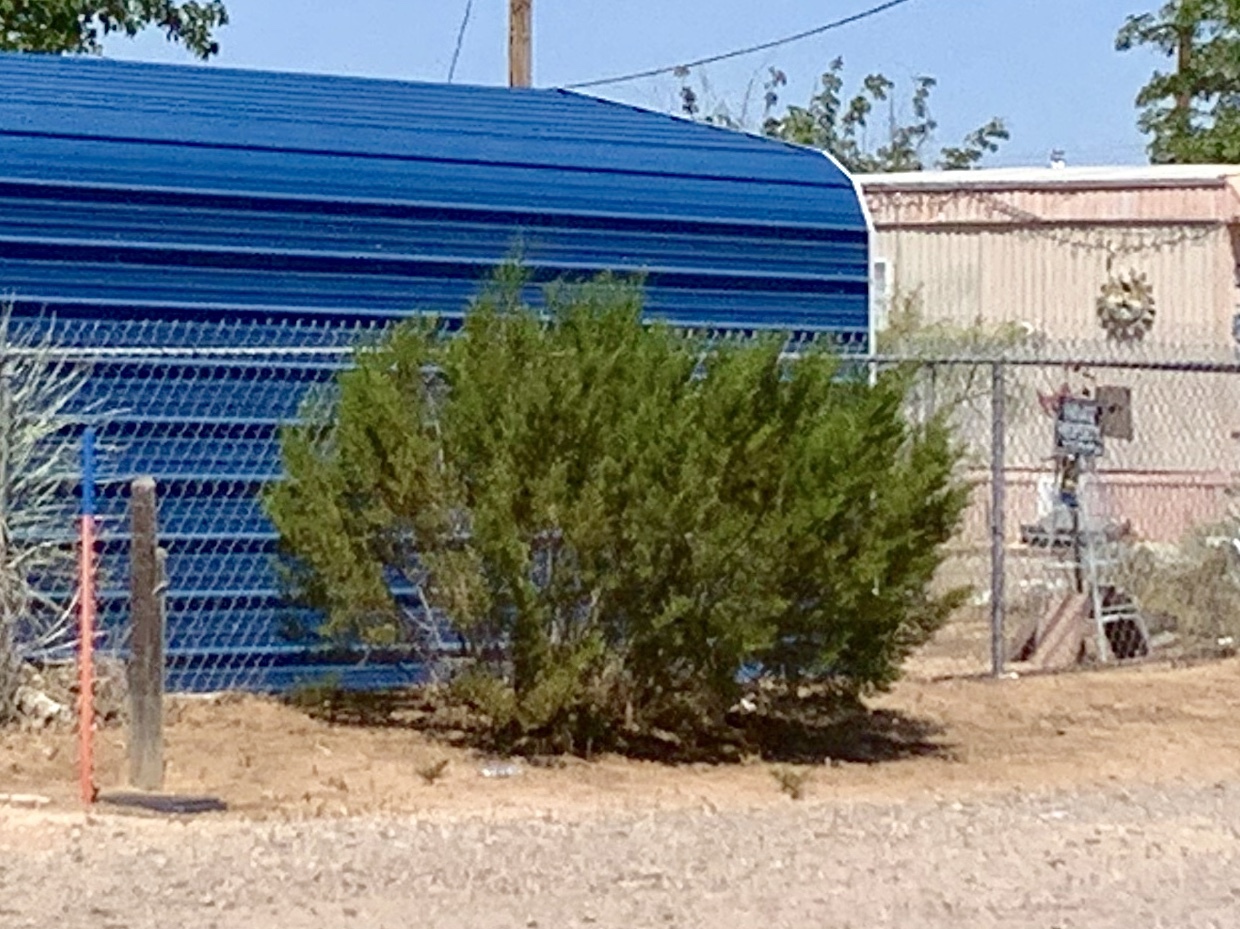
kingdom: Plantae
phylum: Tracheophyta
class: Magnoliopsida
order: Zygophyllales
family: Zygophyllaceae
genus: Larrea
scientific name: Larrea tridentata
